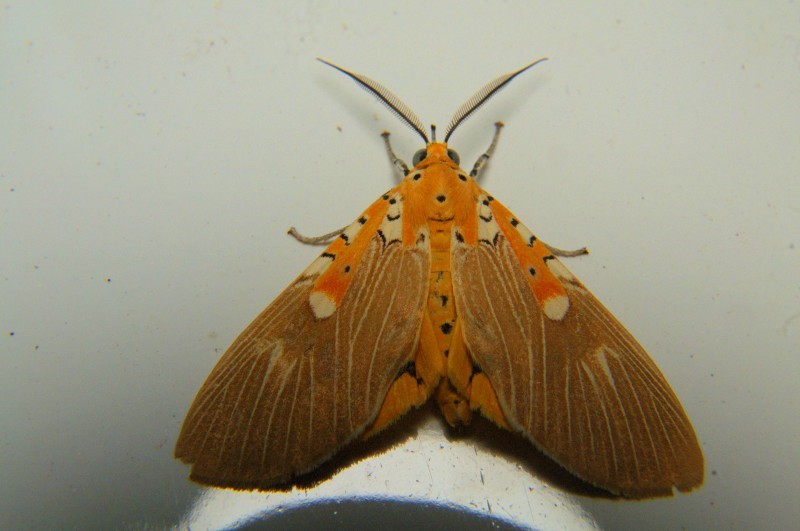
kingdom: Animalia
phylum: Arthropoda
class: Insecta
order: Lepidoptera
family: Erebidae
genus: Asota
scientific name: Asota ficus
